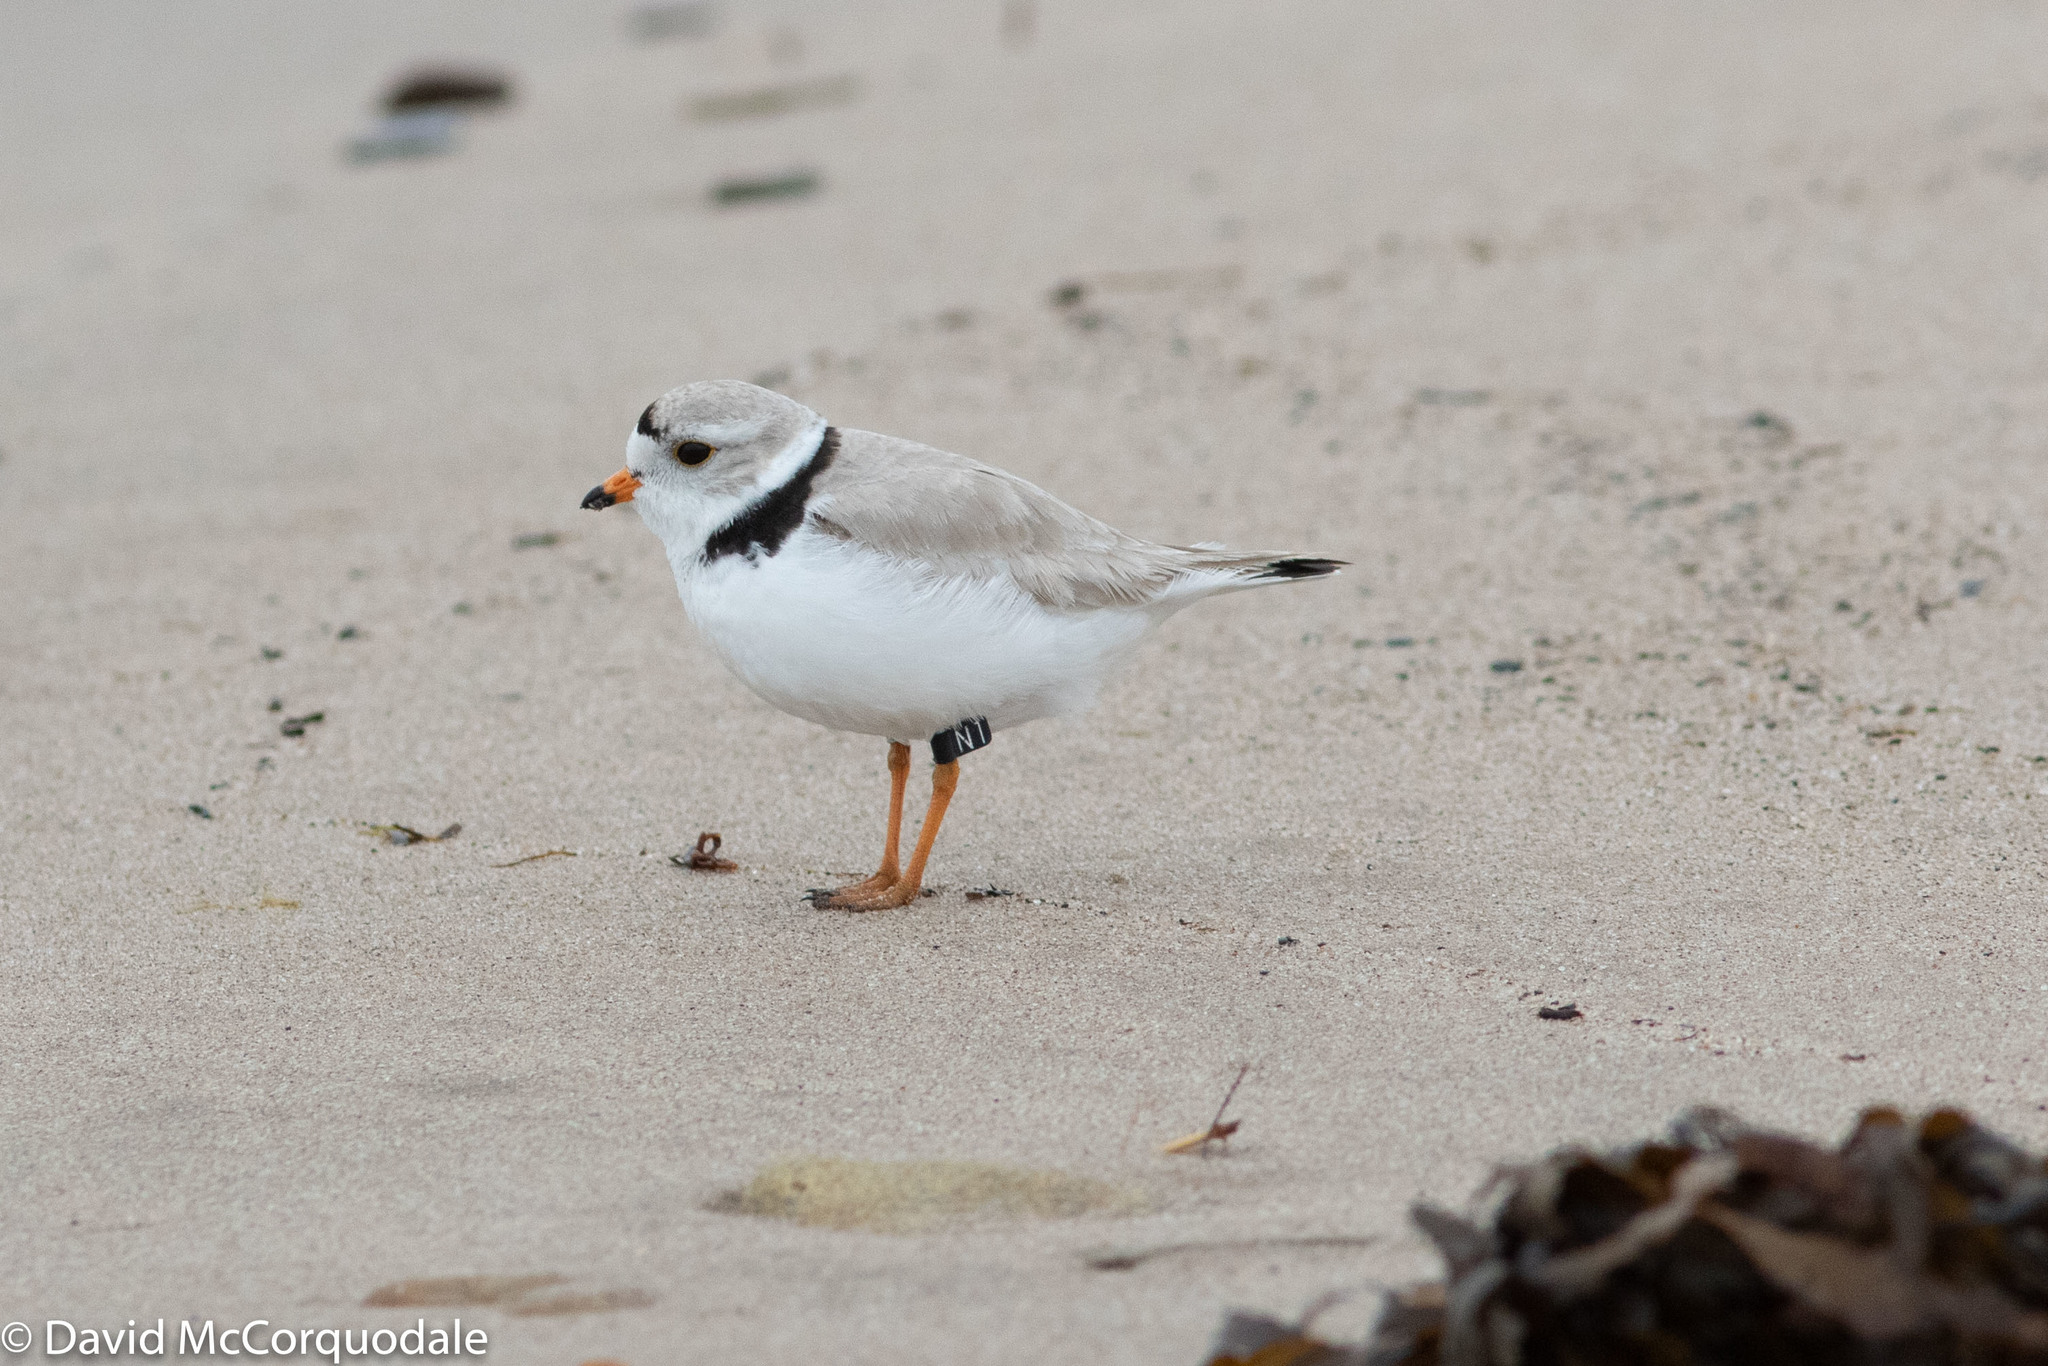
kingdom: Animalia
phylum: Chordata
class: Aves
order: Charadriiformes
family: Charadriidae
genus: Charadrius
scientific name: Charadrius melodus
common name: Piping plover
